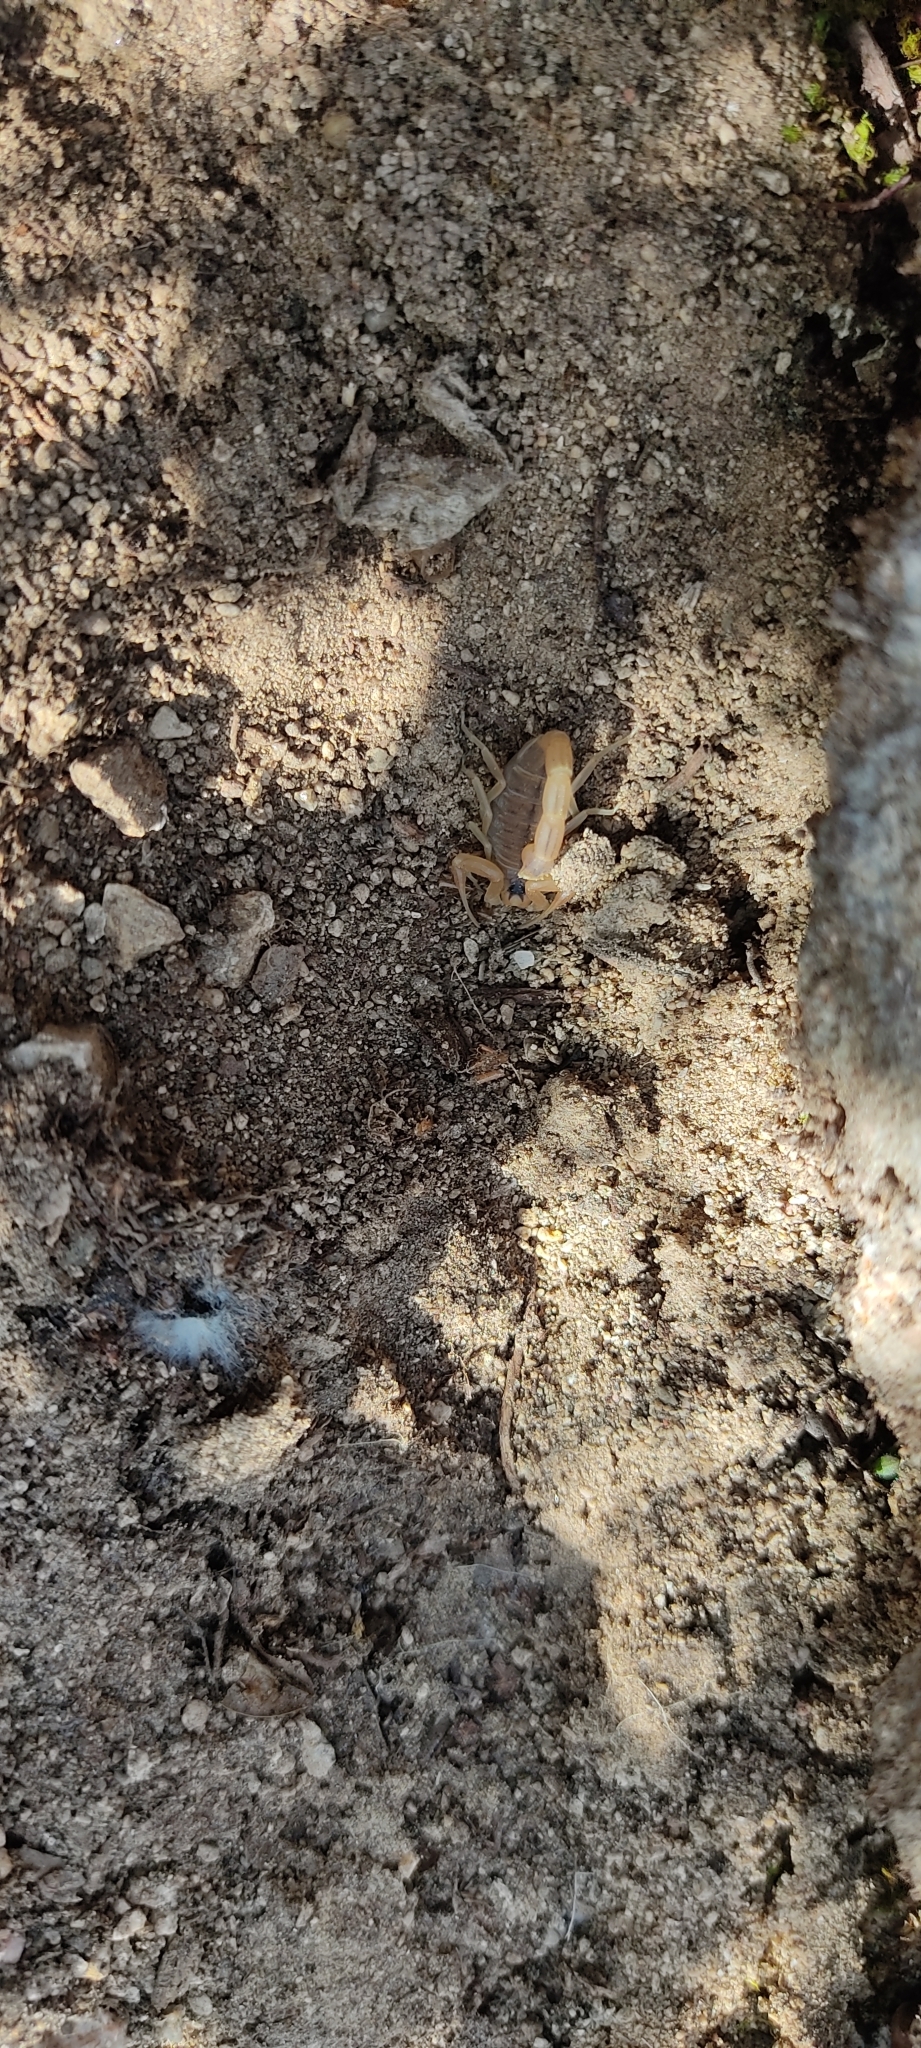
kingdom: Animalia
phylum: Arthropoda
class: Arachnida
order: Scorpiones
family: Buthidae
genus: Buthus
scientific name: Buthus occitanus
